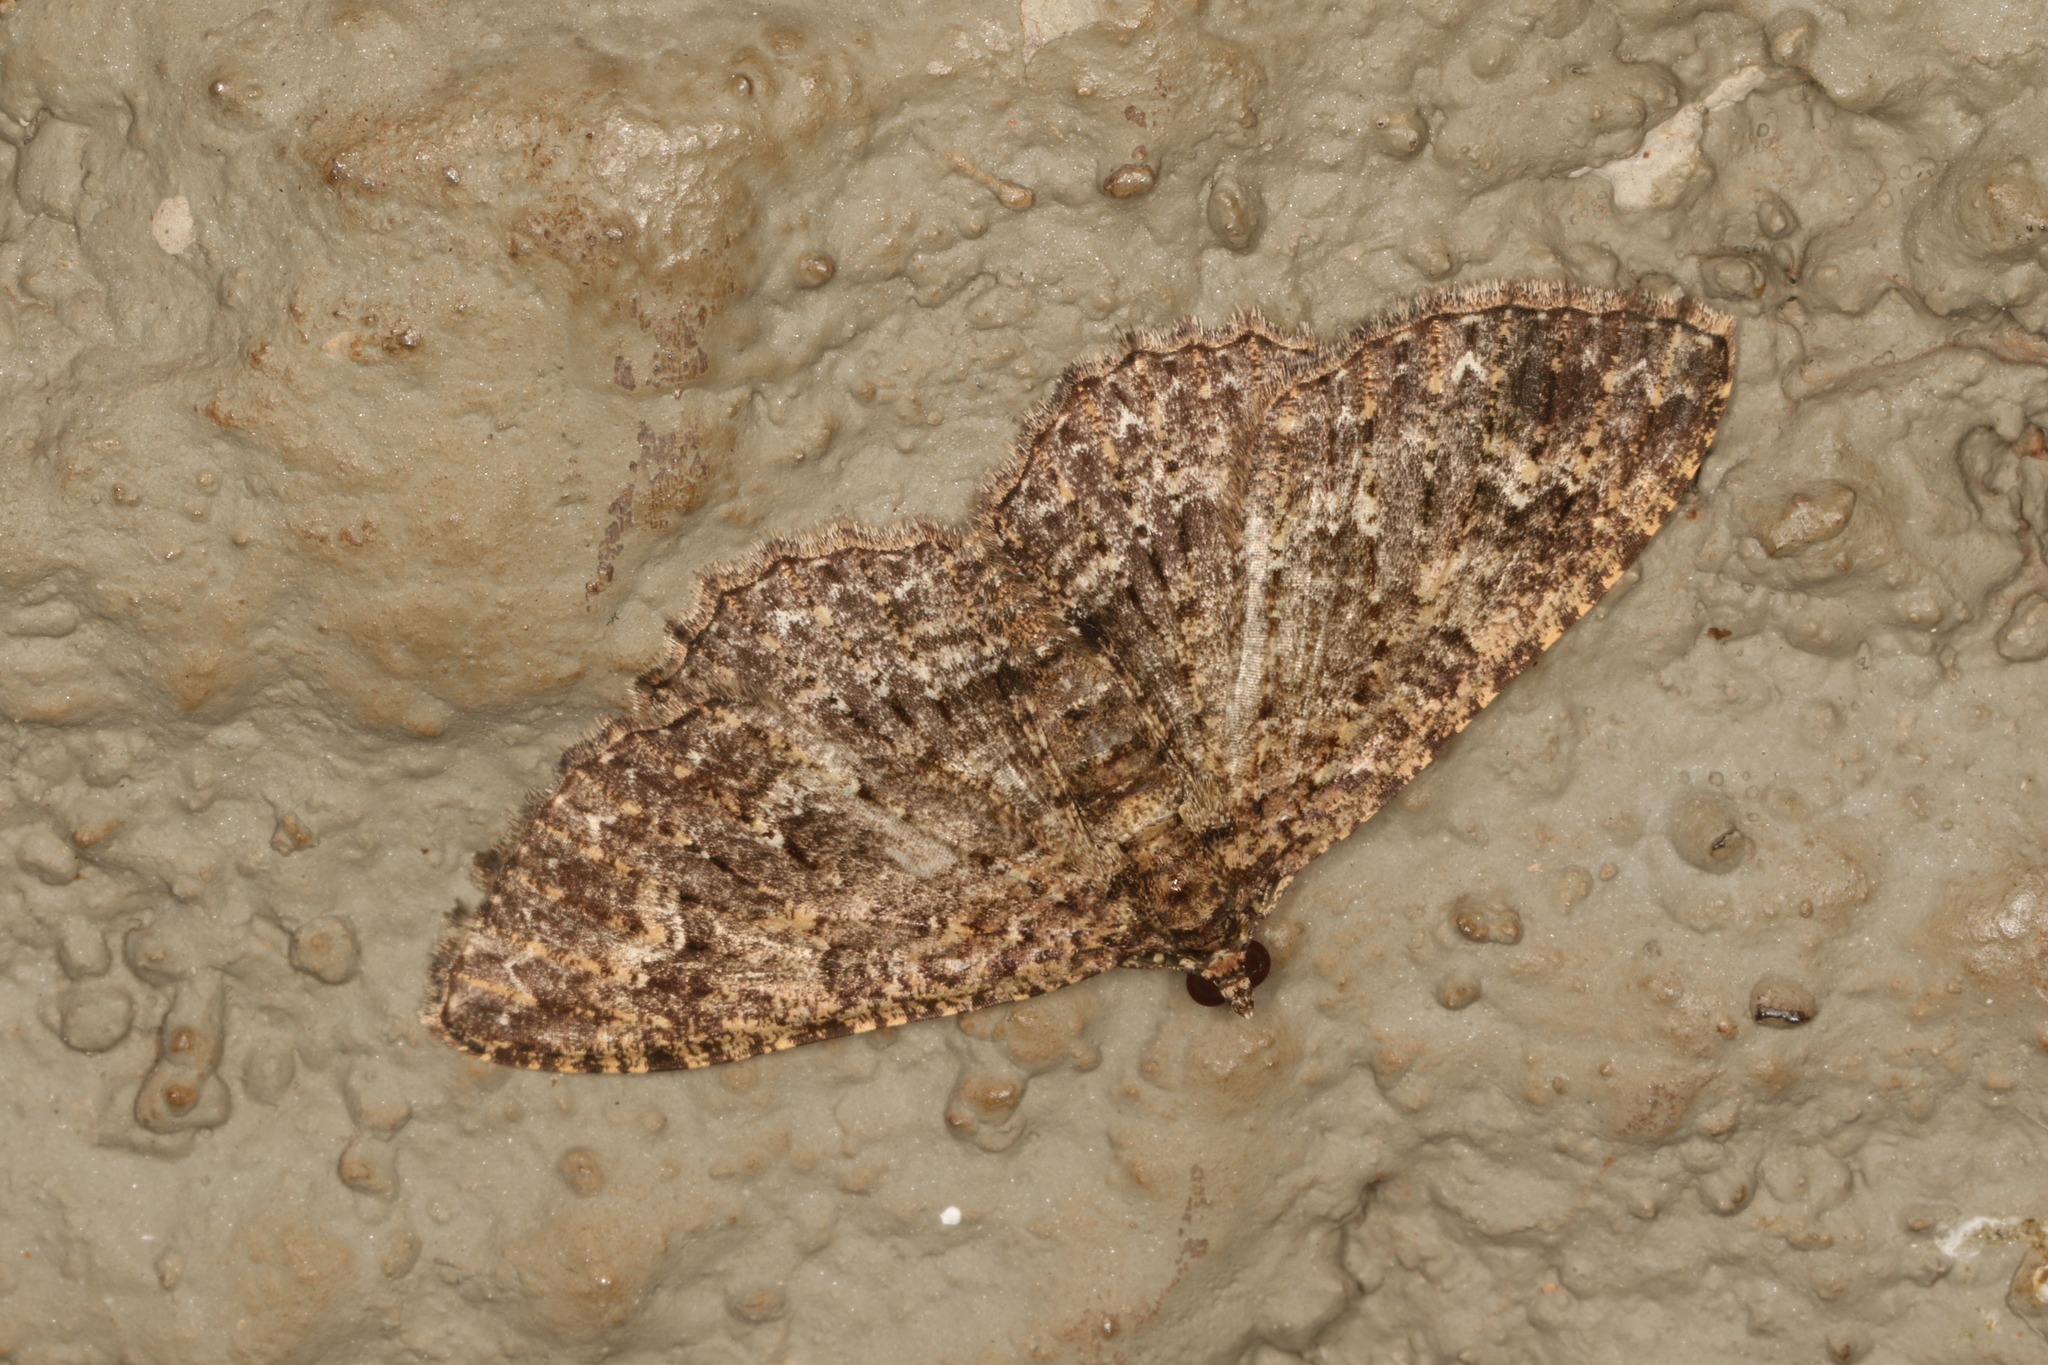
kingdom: Animalia
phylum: Arthropoda
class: Insecta
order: Lepidoptera
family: Geometridae
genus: Disclisioprocta
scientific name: Disclisioprocta stellata
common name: Somber carpet
